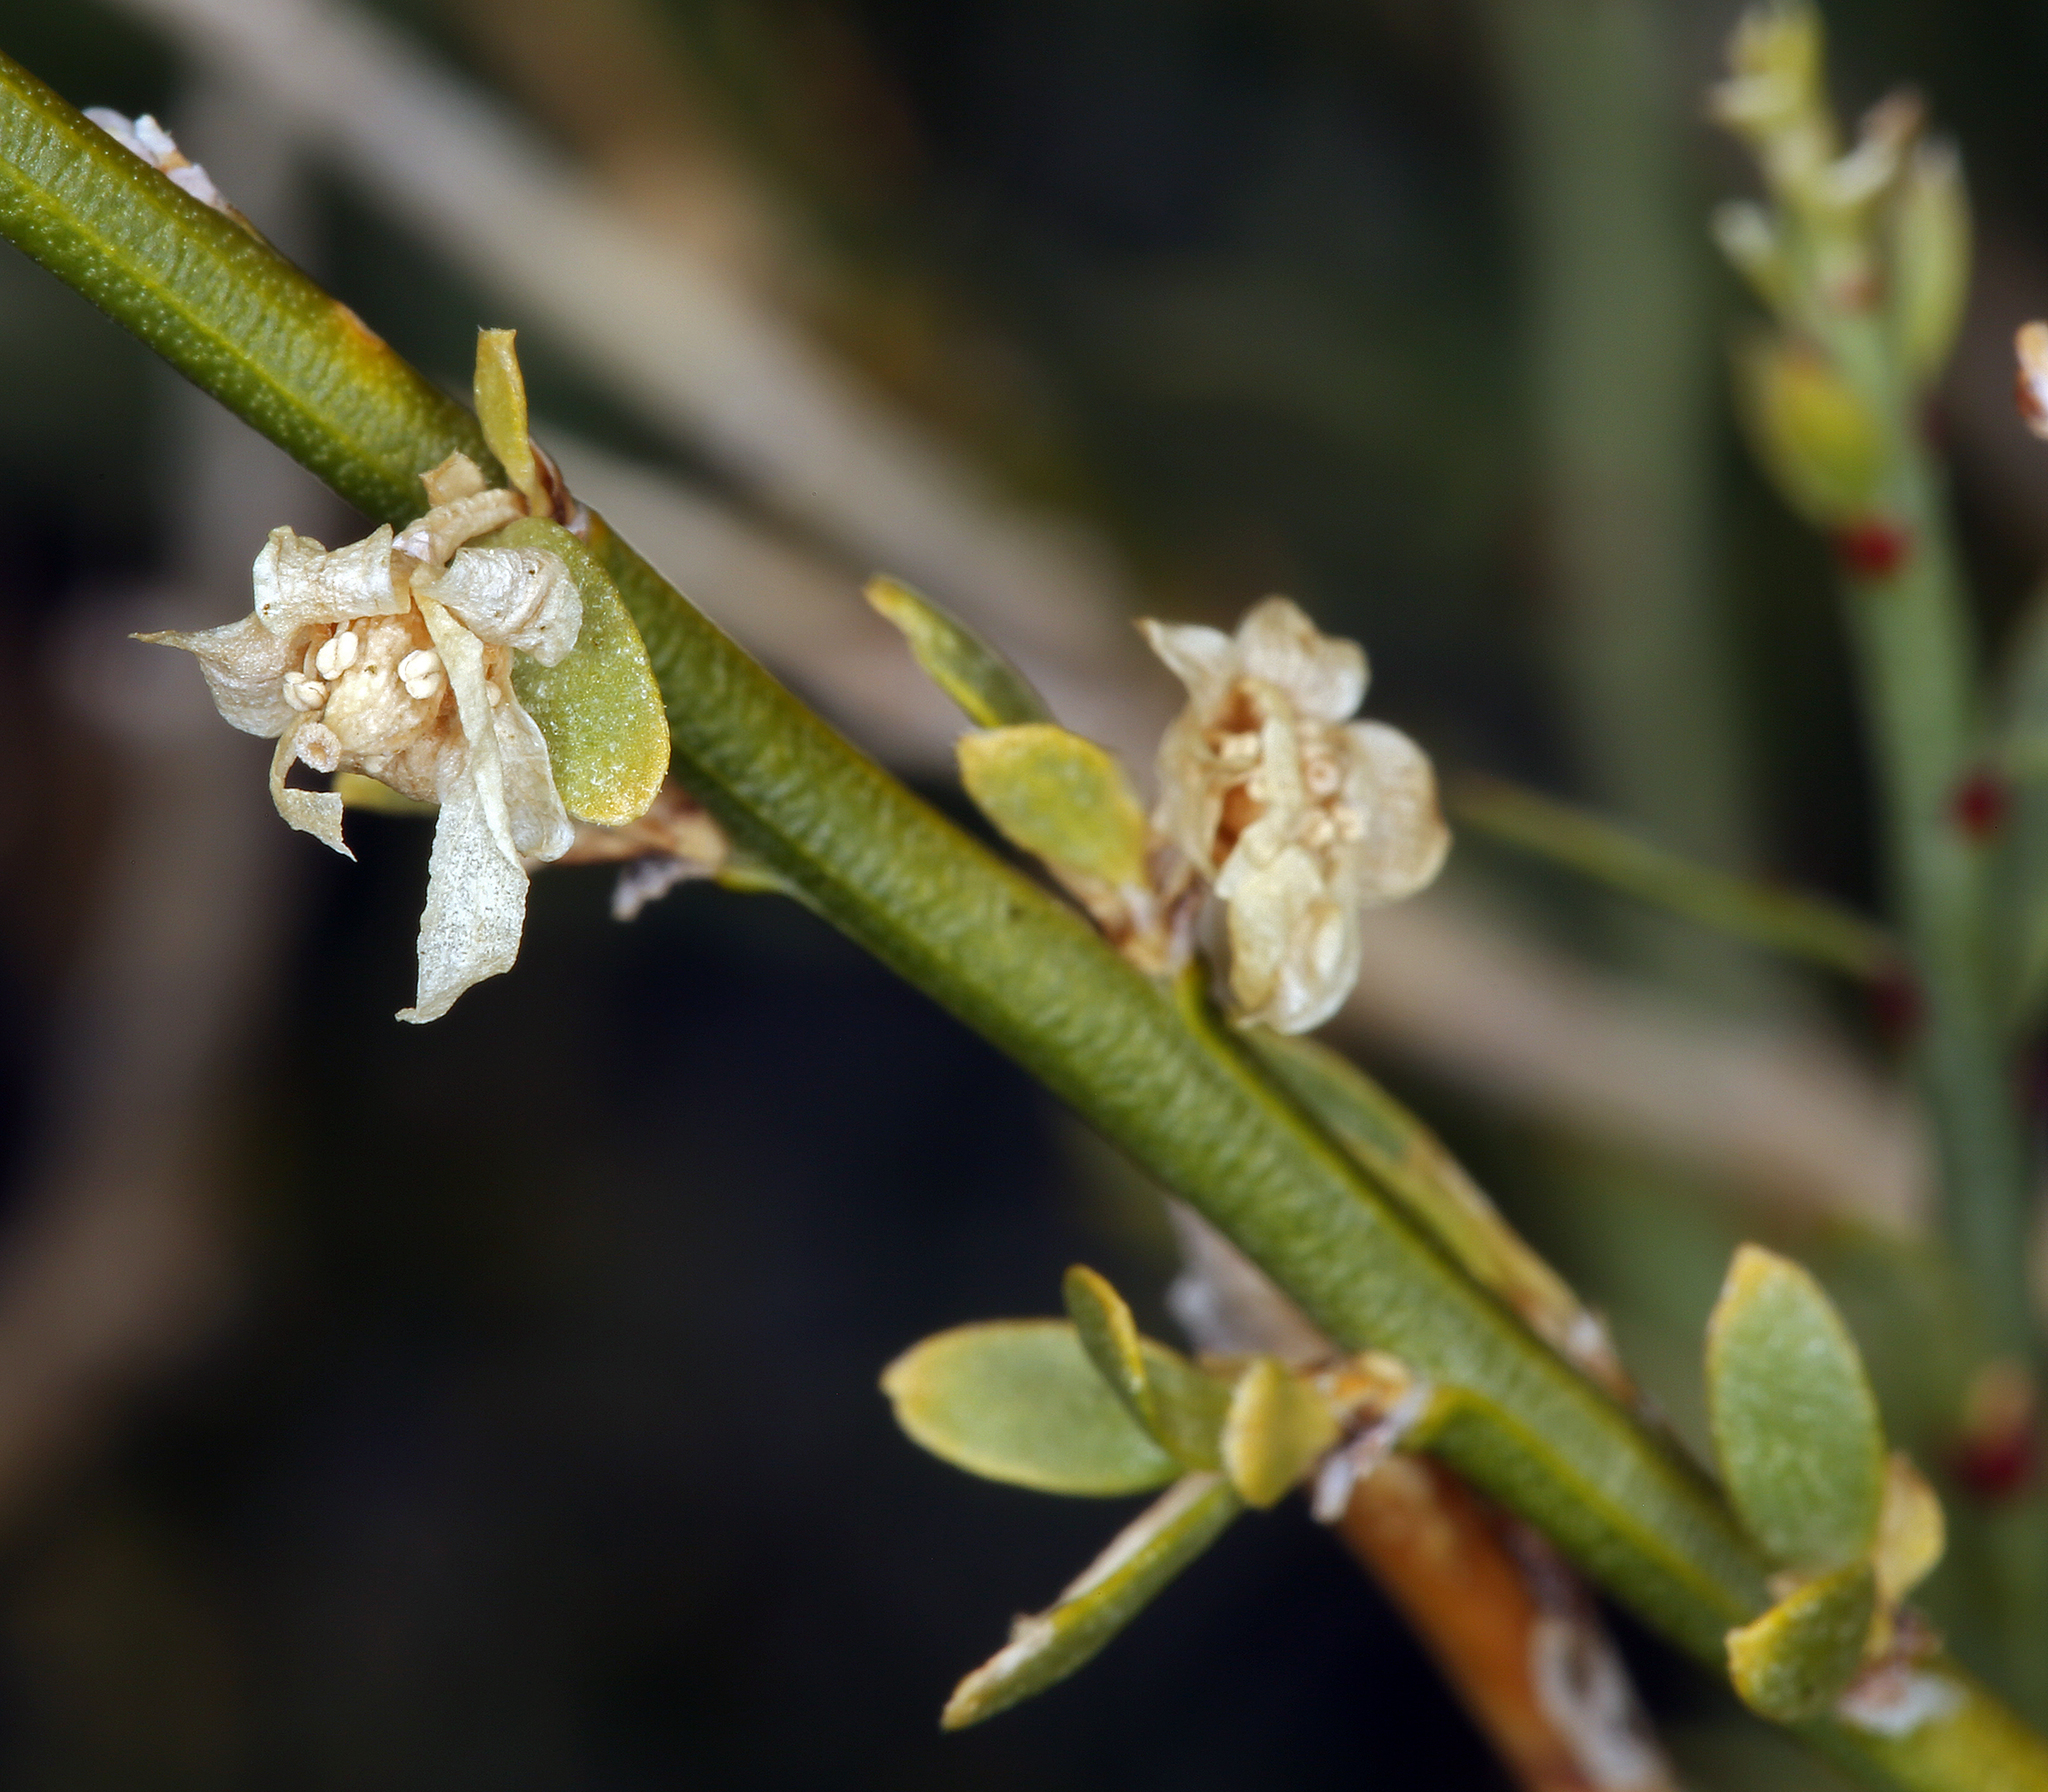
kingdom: Plantae
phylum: Tracheophyta
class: Magnoliopsida
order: Crossosomatales
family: Crossosomataceae
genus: Glossopetalon
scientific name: Glossopetalon spinescens
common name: Spring greasebush
